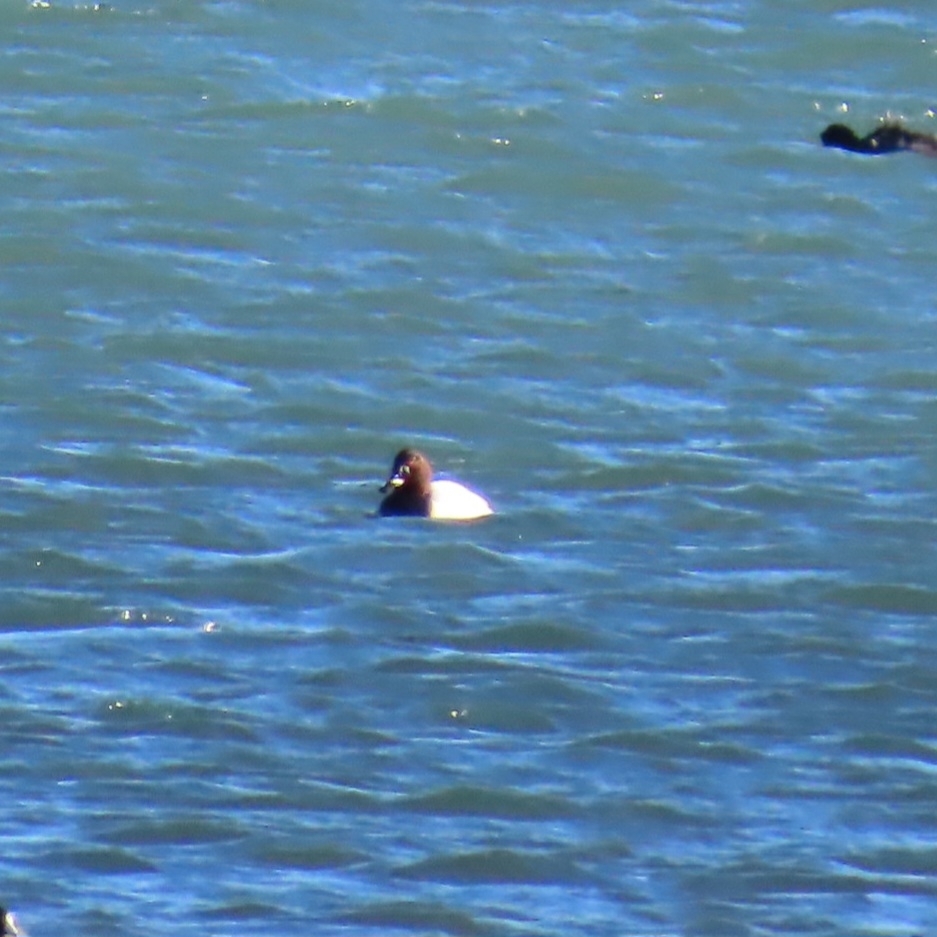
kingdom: Animalia
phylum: Chordata
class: Aves
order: Anseriformes
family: Anatidae
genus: Aythya
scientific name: Aythya valisineria
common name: Canvasback
